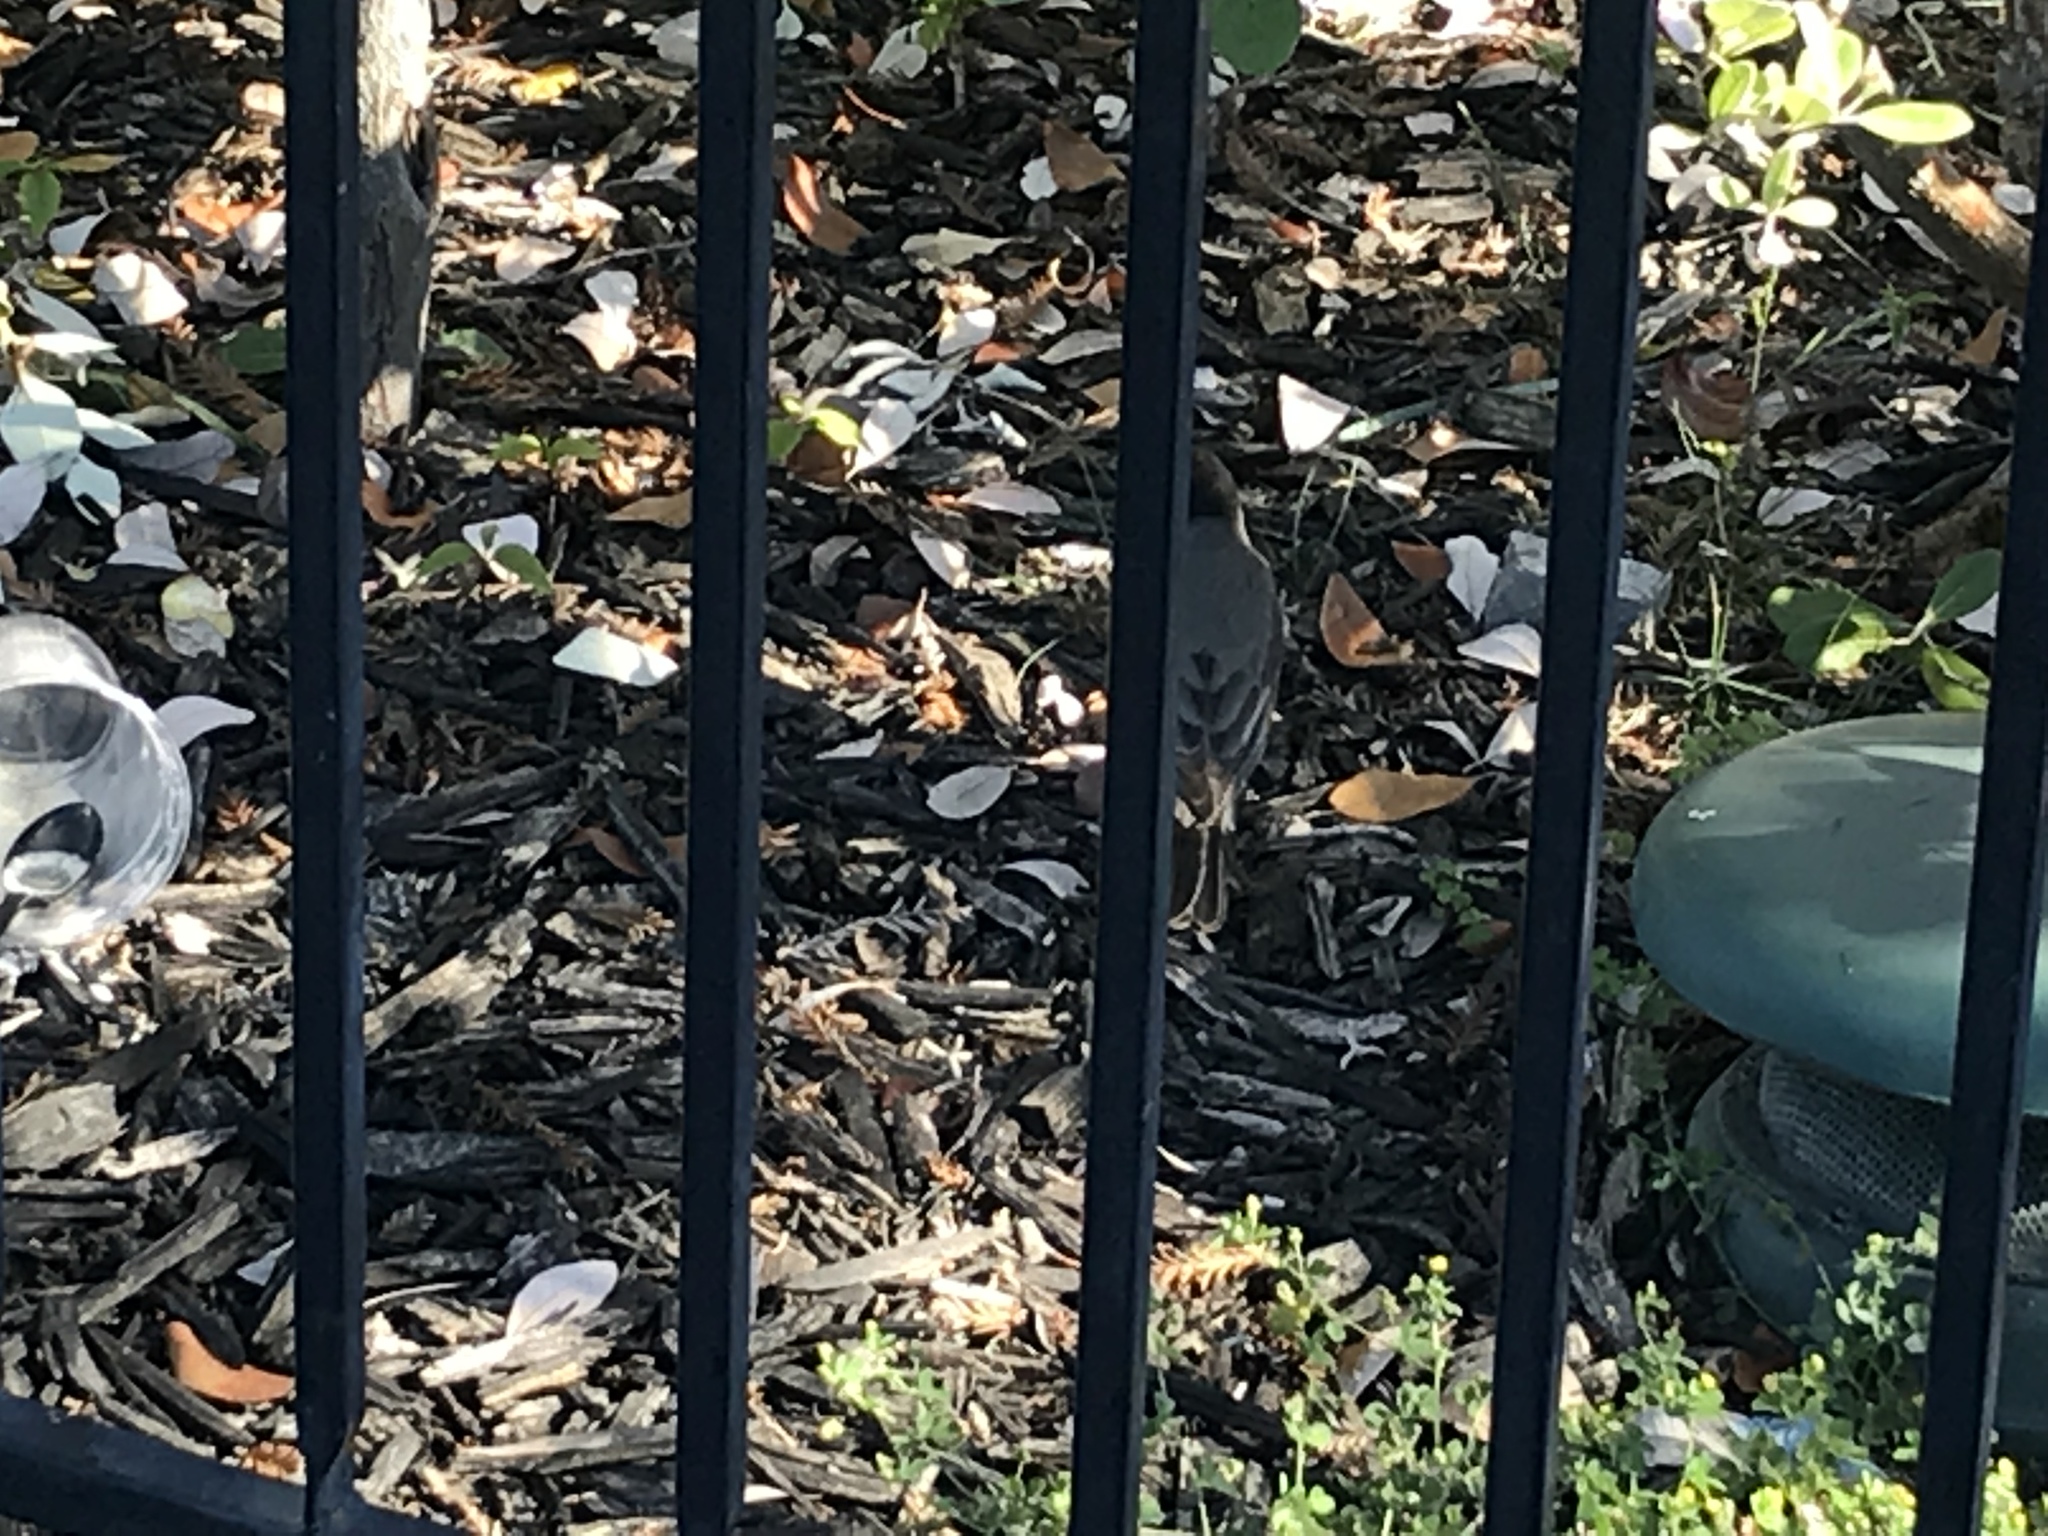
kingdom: Animalia
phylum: Chordata
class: Aves
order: Passeriformes
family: Turdidae
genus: Turdus
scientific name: Turdus migratorius
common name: American robin
